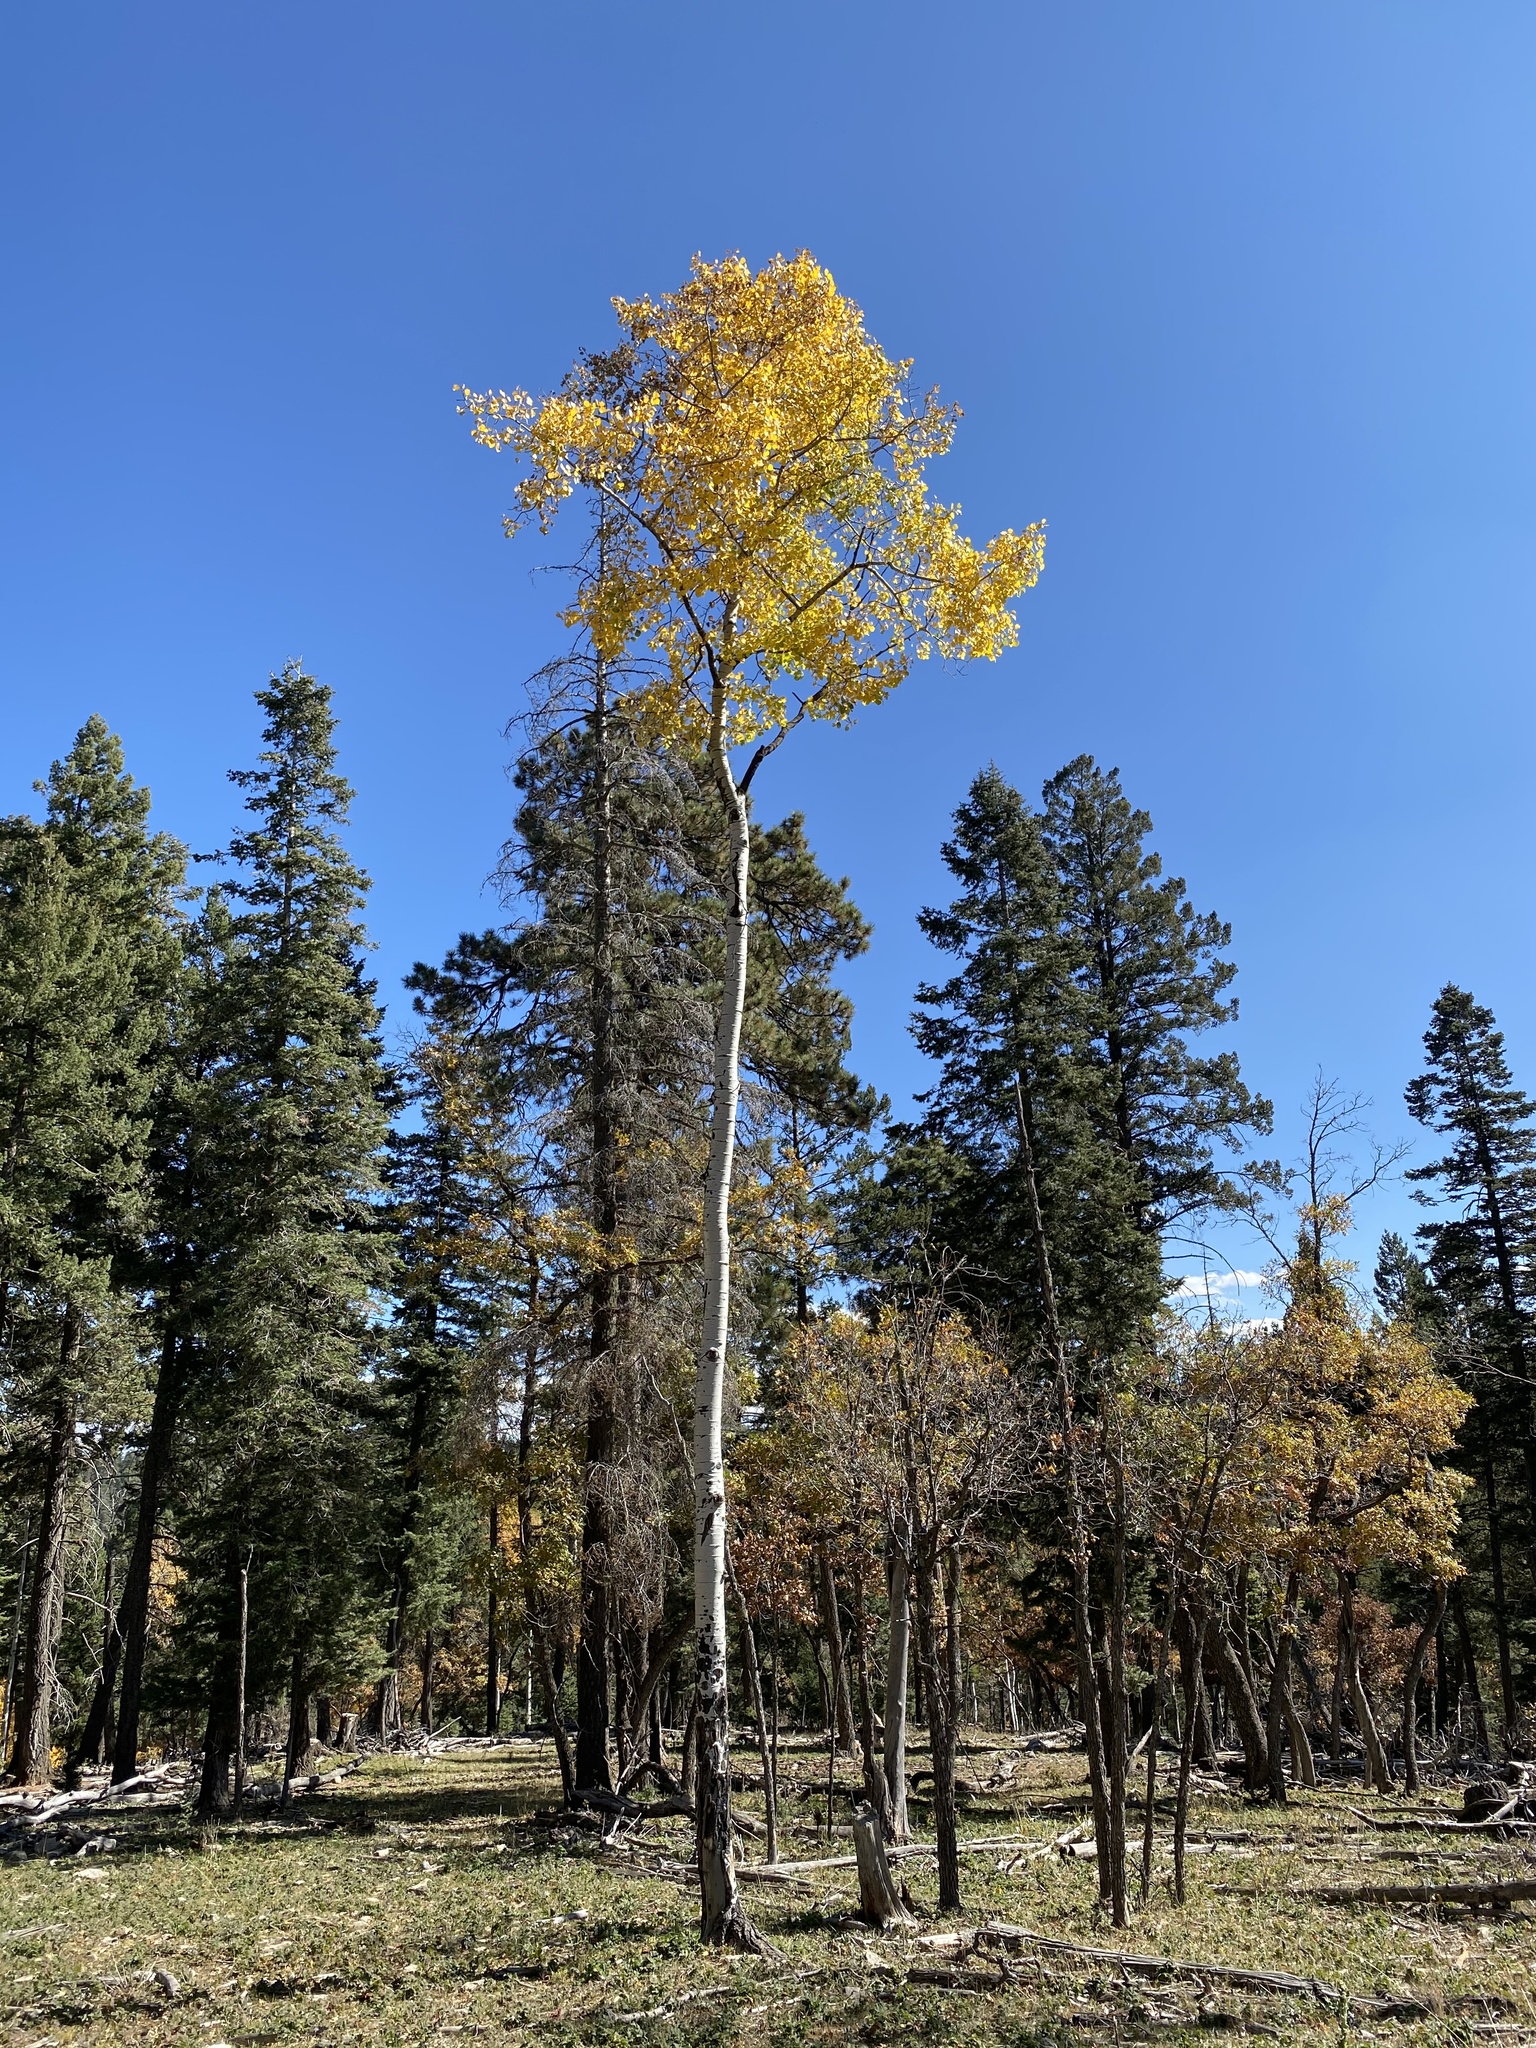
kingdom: Plantae
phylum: Tracheophyta
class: Magnoliopsida
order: Malpighiales
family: Salicaceae
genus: Populus
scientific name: Populus tremuloides
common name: Quaking aspen
